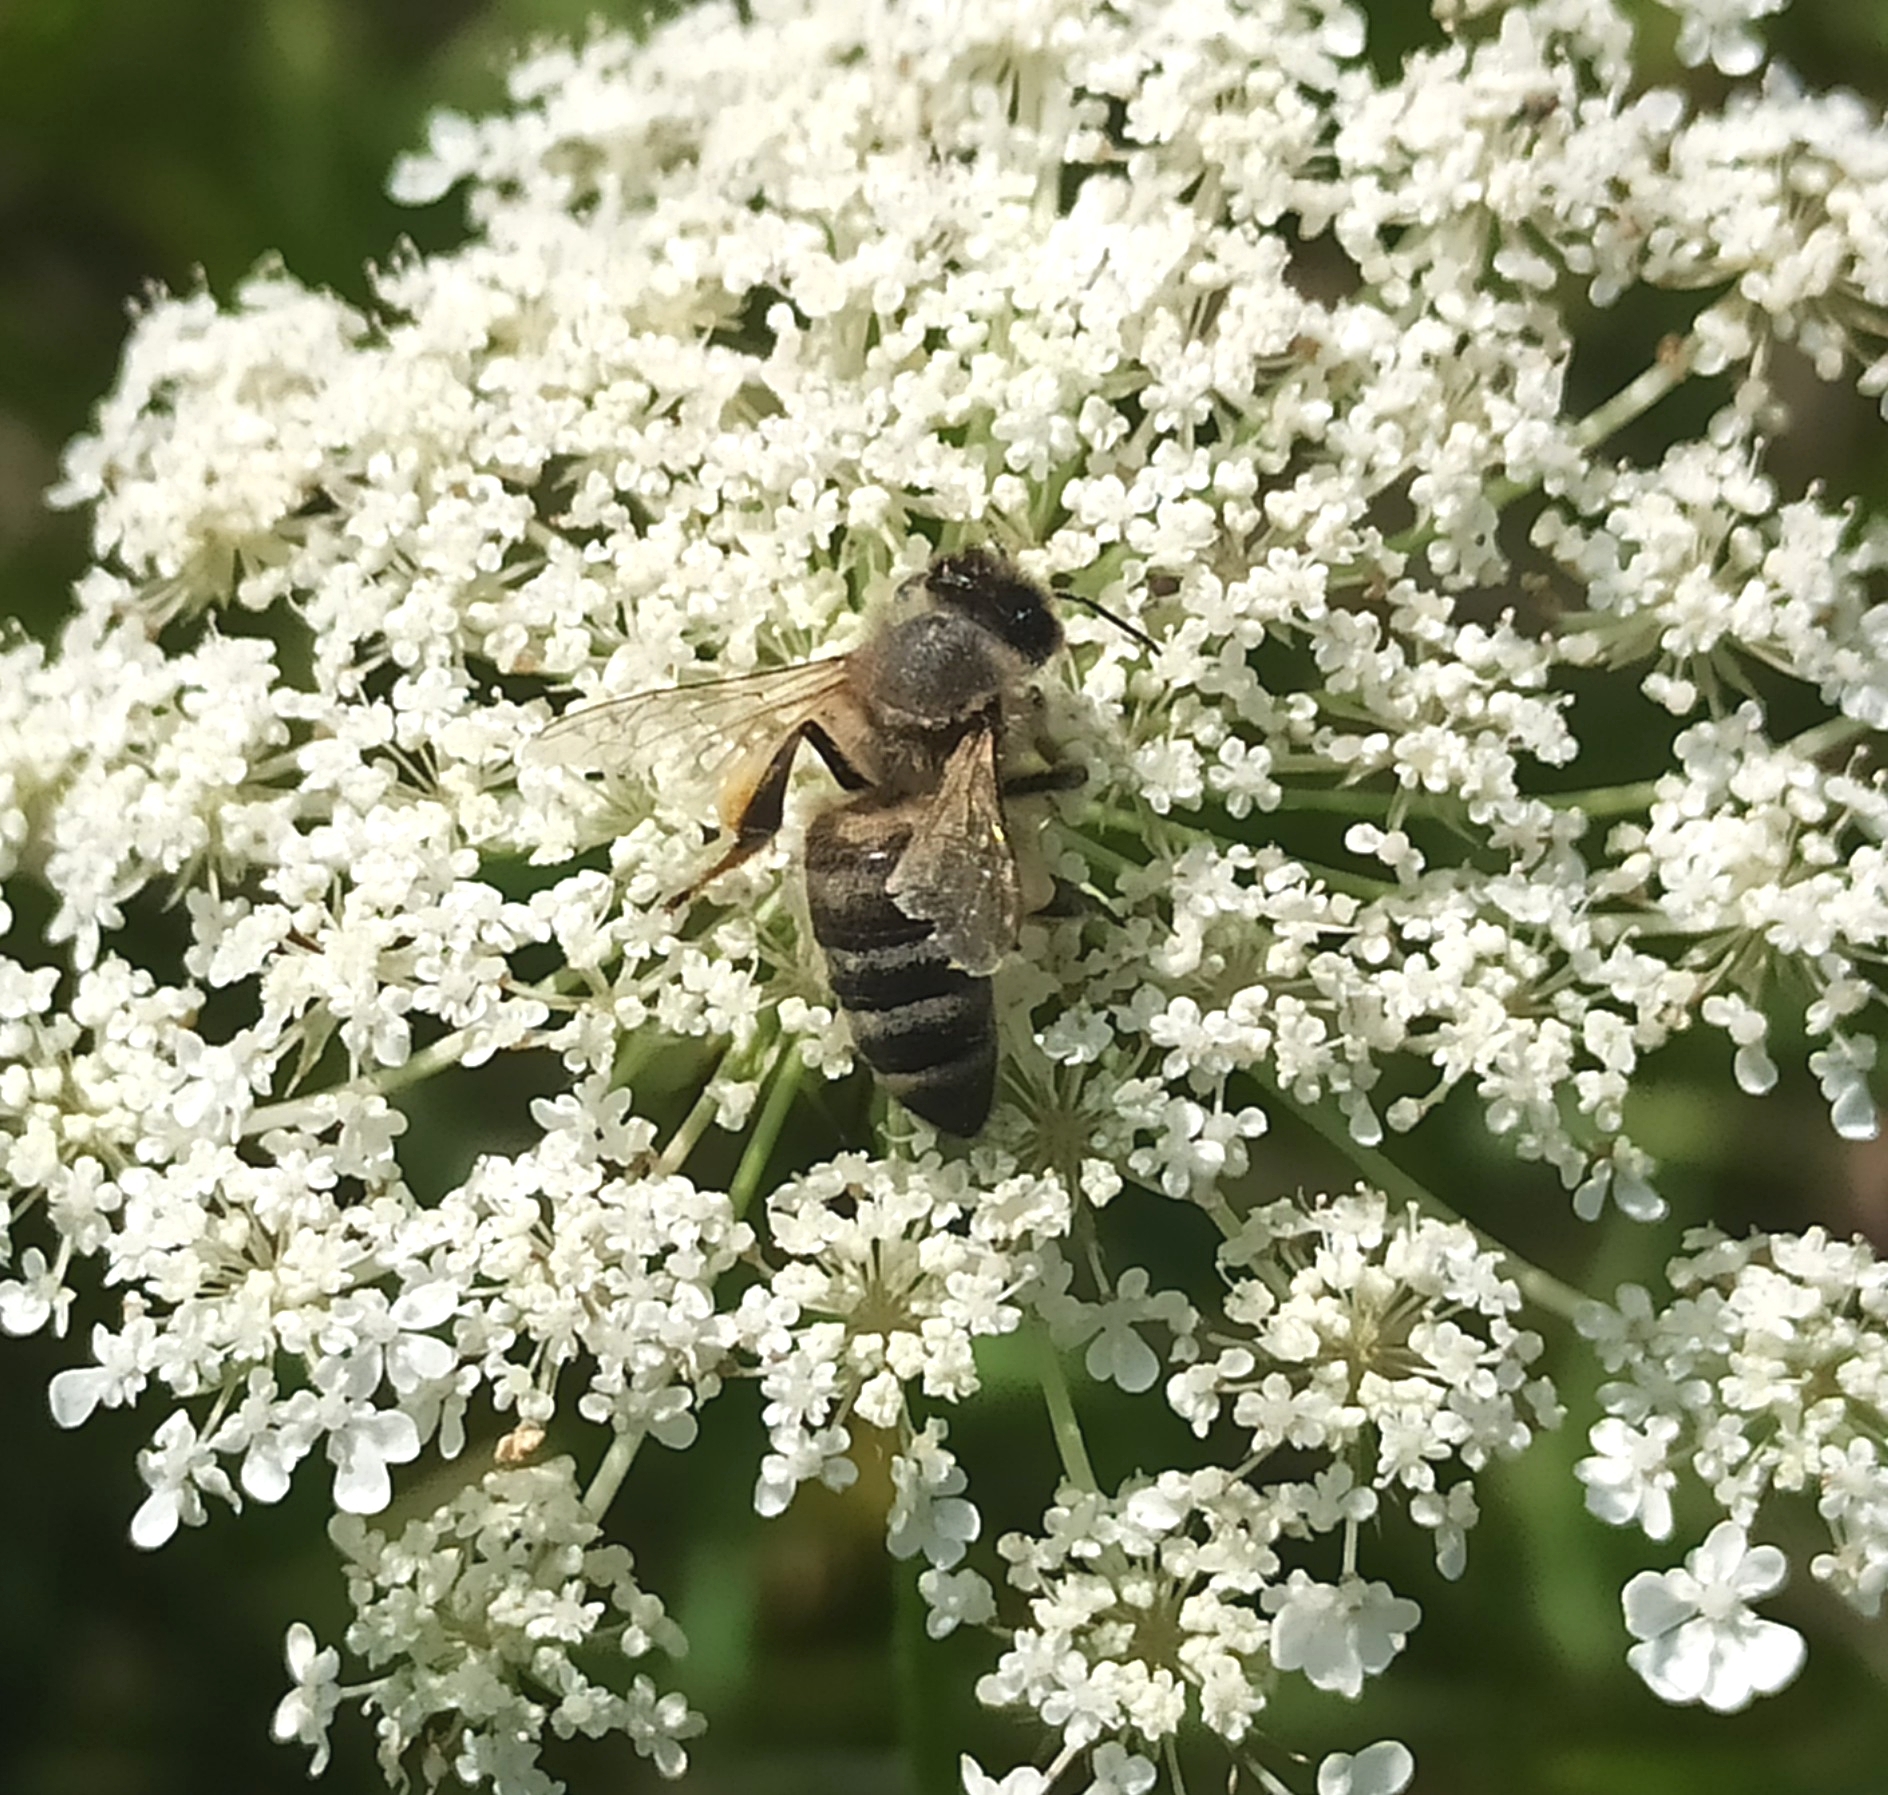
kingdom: Animalia
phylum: Arthropoda
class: Insecta
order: Hymenoptera
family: Apidae
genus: Apis
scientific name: Apis mellifera
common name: Honey bee
